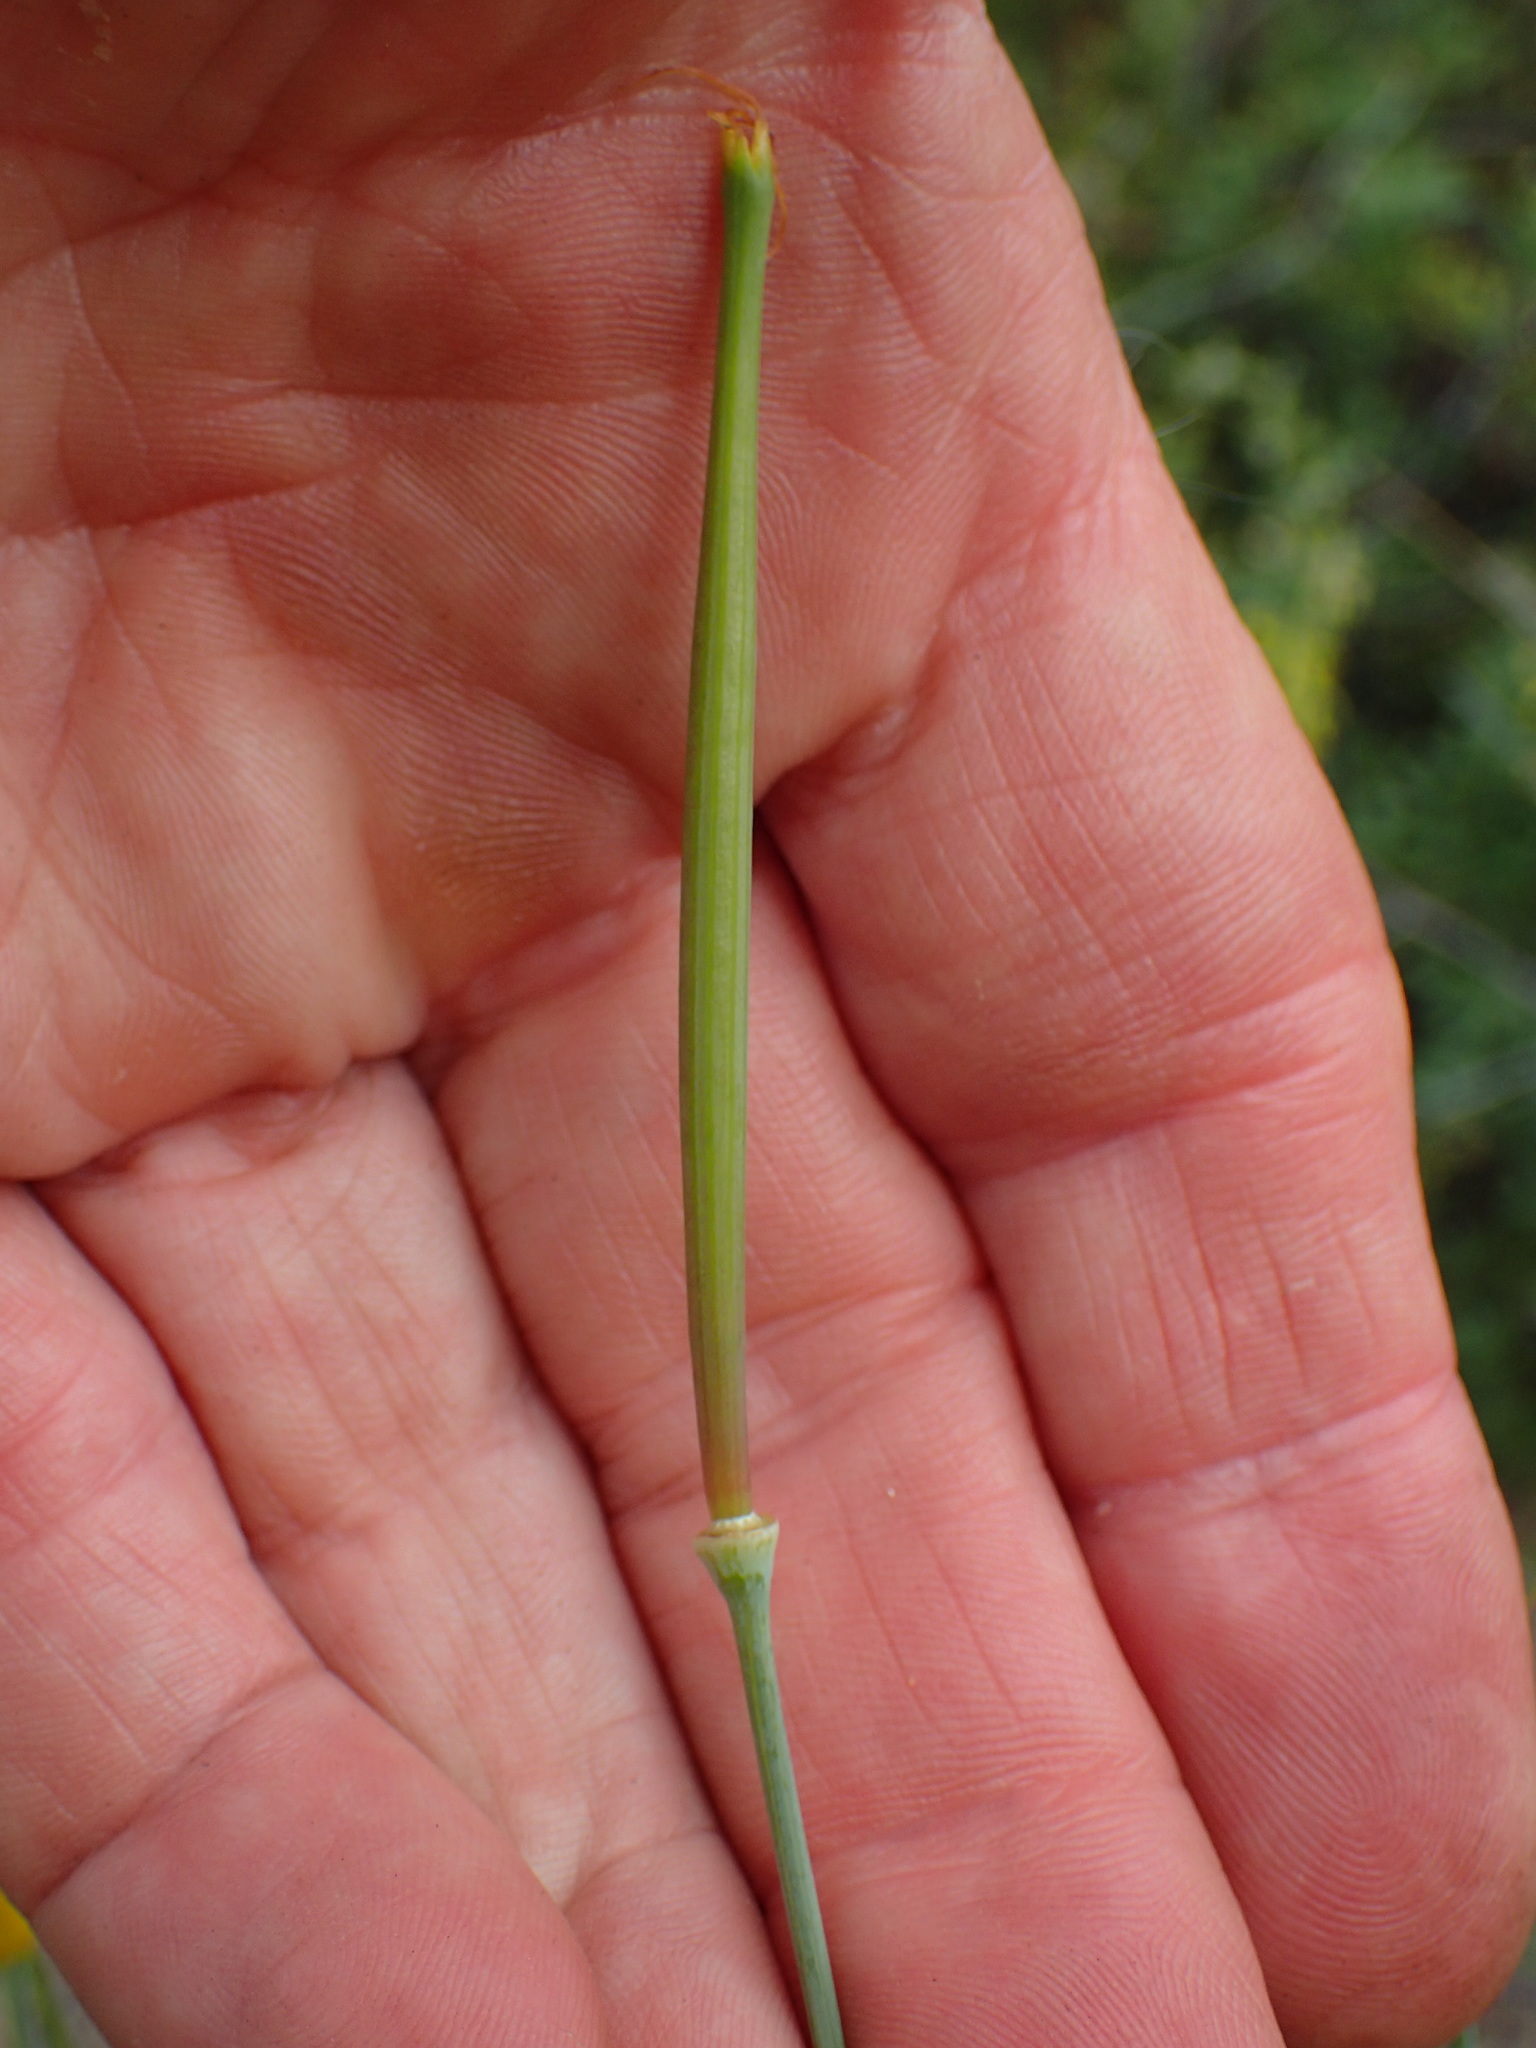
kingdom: Plantae
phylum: Tracheophyta
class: Magnoliopsida
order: Ranunculales
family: Papaveraceae
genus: Eschscholzia
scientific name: Eschscholzia caespitosa
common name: Tufted california-poppy
